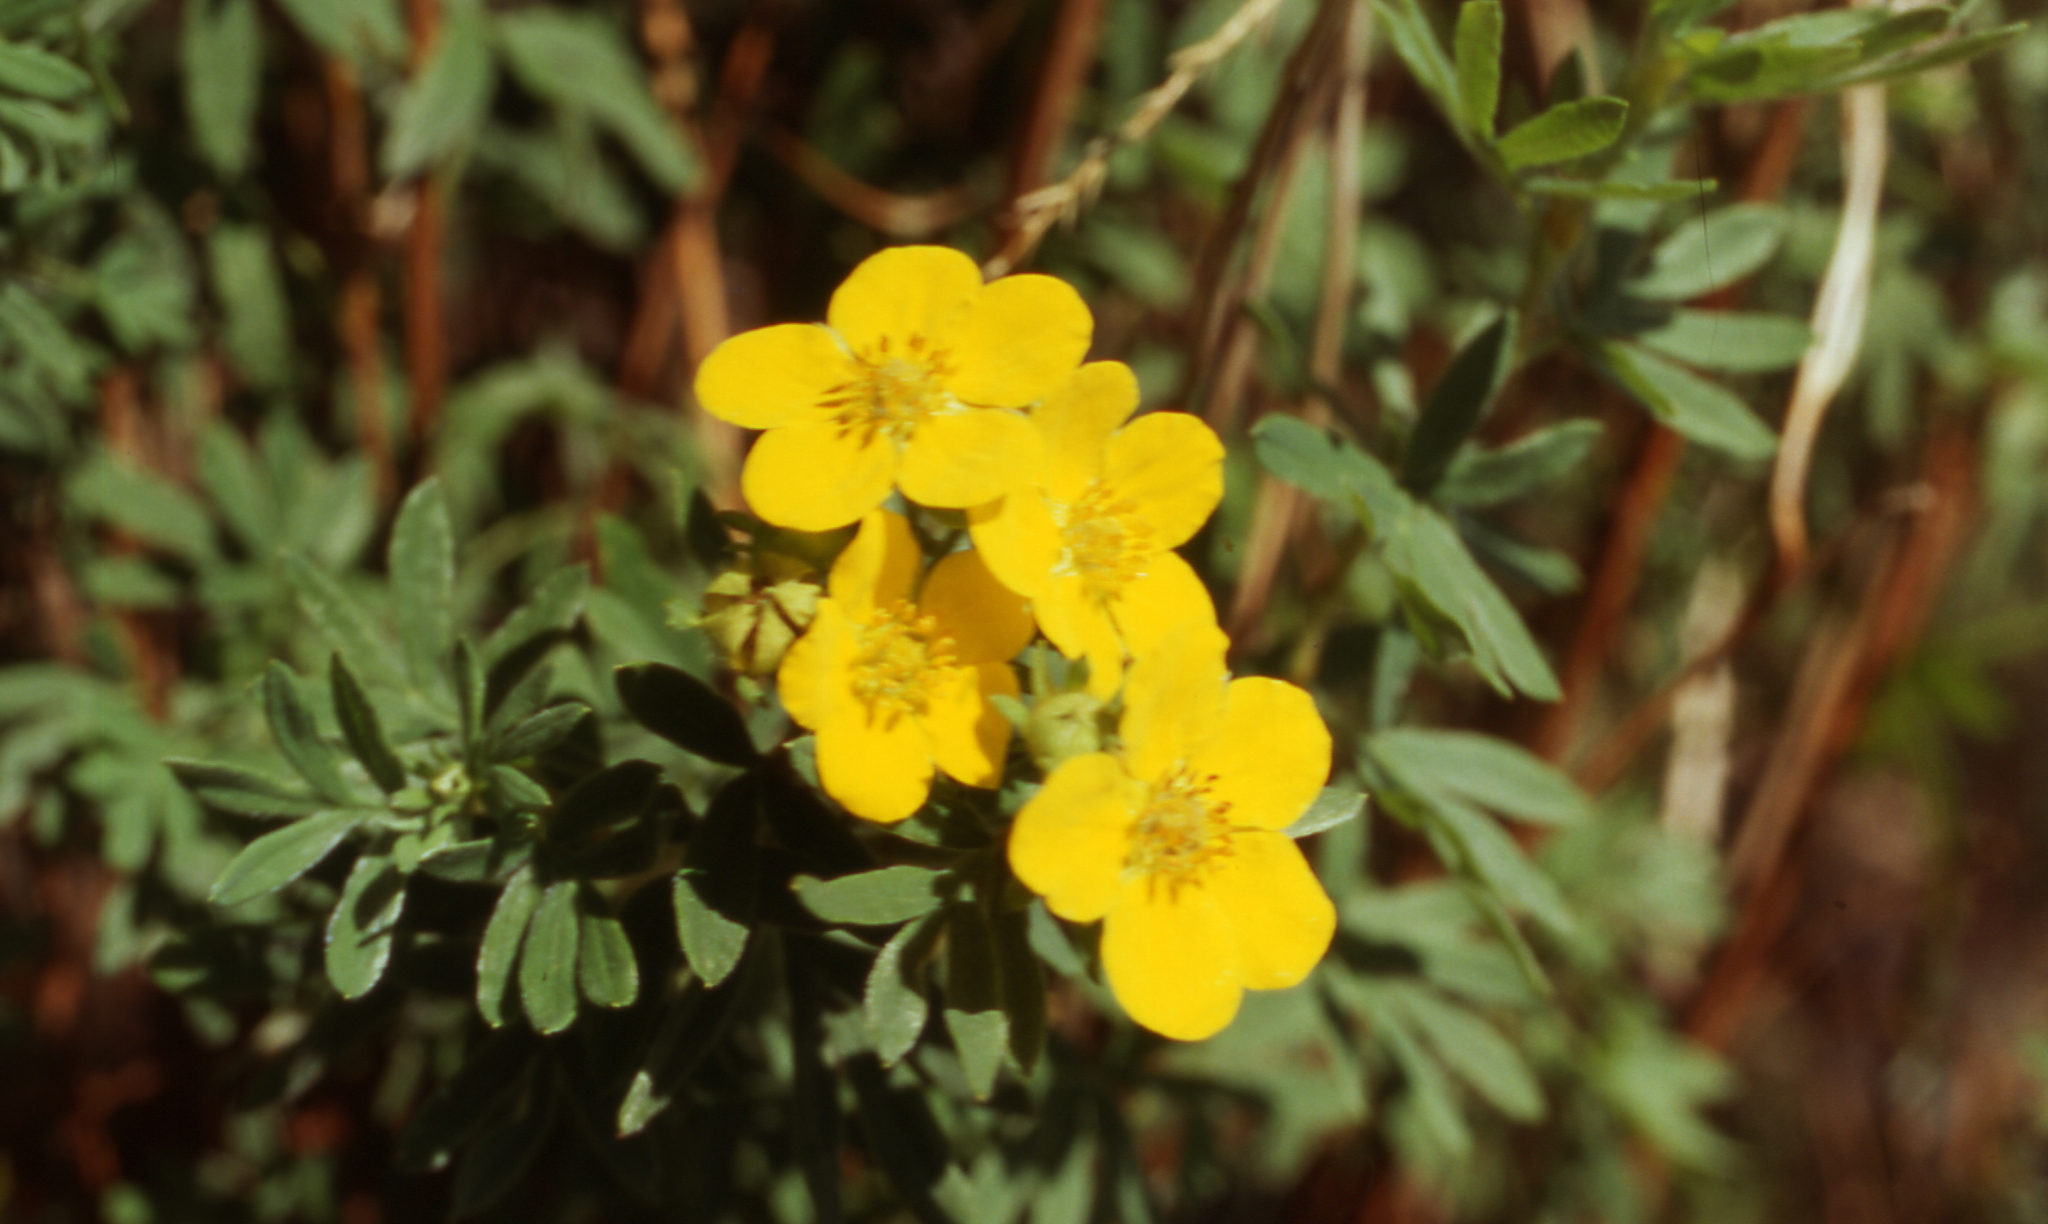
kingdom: Plantae
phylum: Tracheophyta
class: Magnoliopsida
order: Rosales
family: Rosaceae
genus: Dasiphora
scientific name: Dasiphora fruticosa
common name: Shrubby cinquefoil
